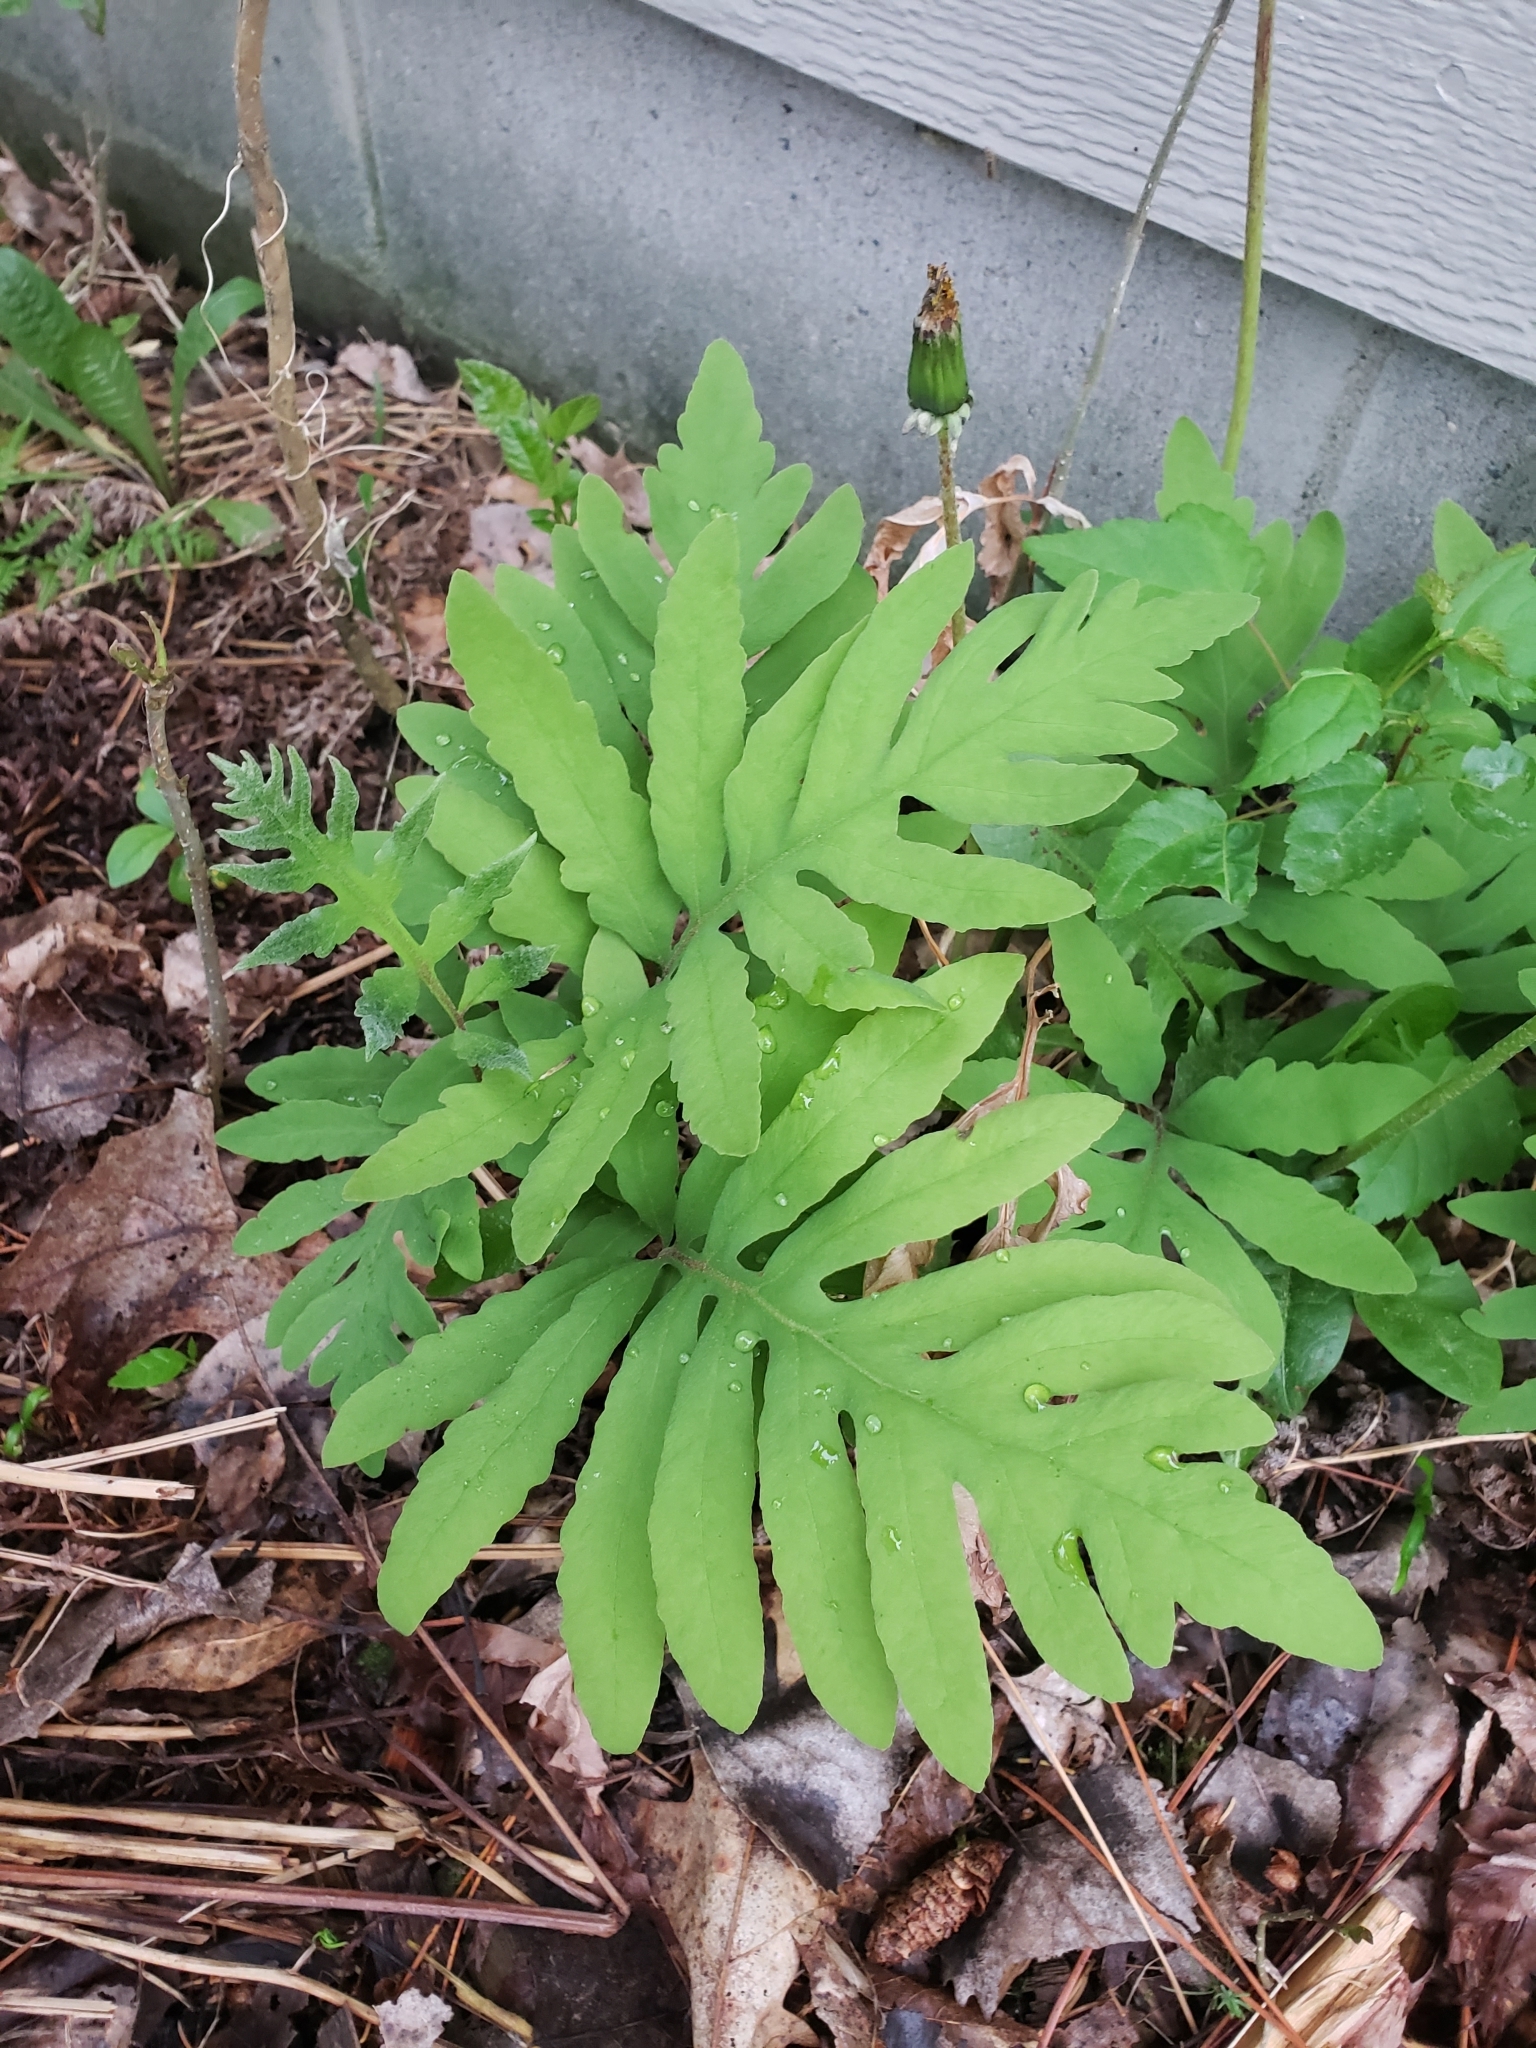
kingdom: Plantae
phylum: Tracheophyta
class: Polypodiopsida
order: Polypodiales
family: Onocleaceae
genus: Onoclea
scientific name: Onoclea sensibilis
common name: Sensitive fern
